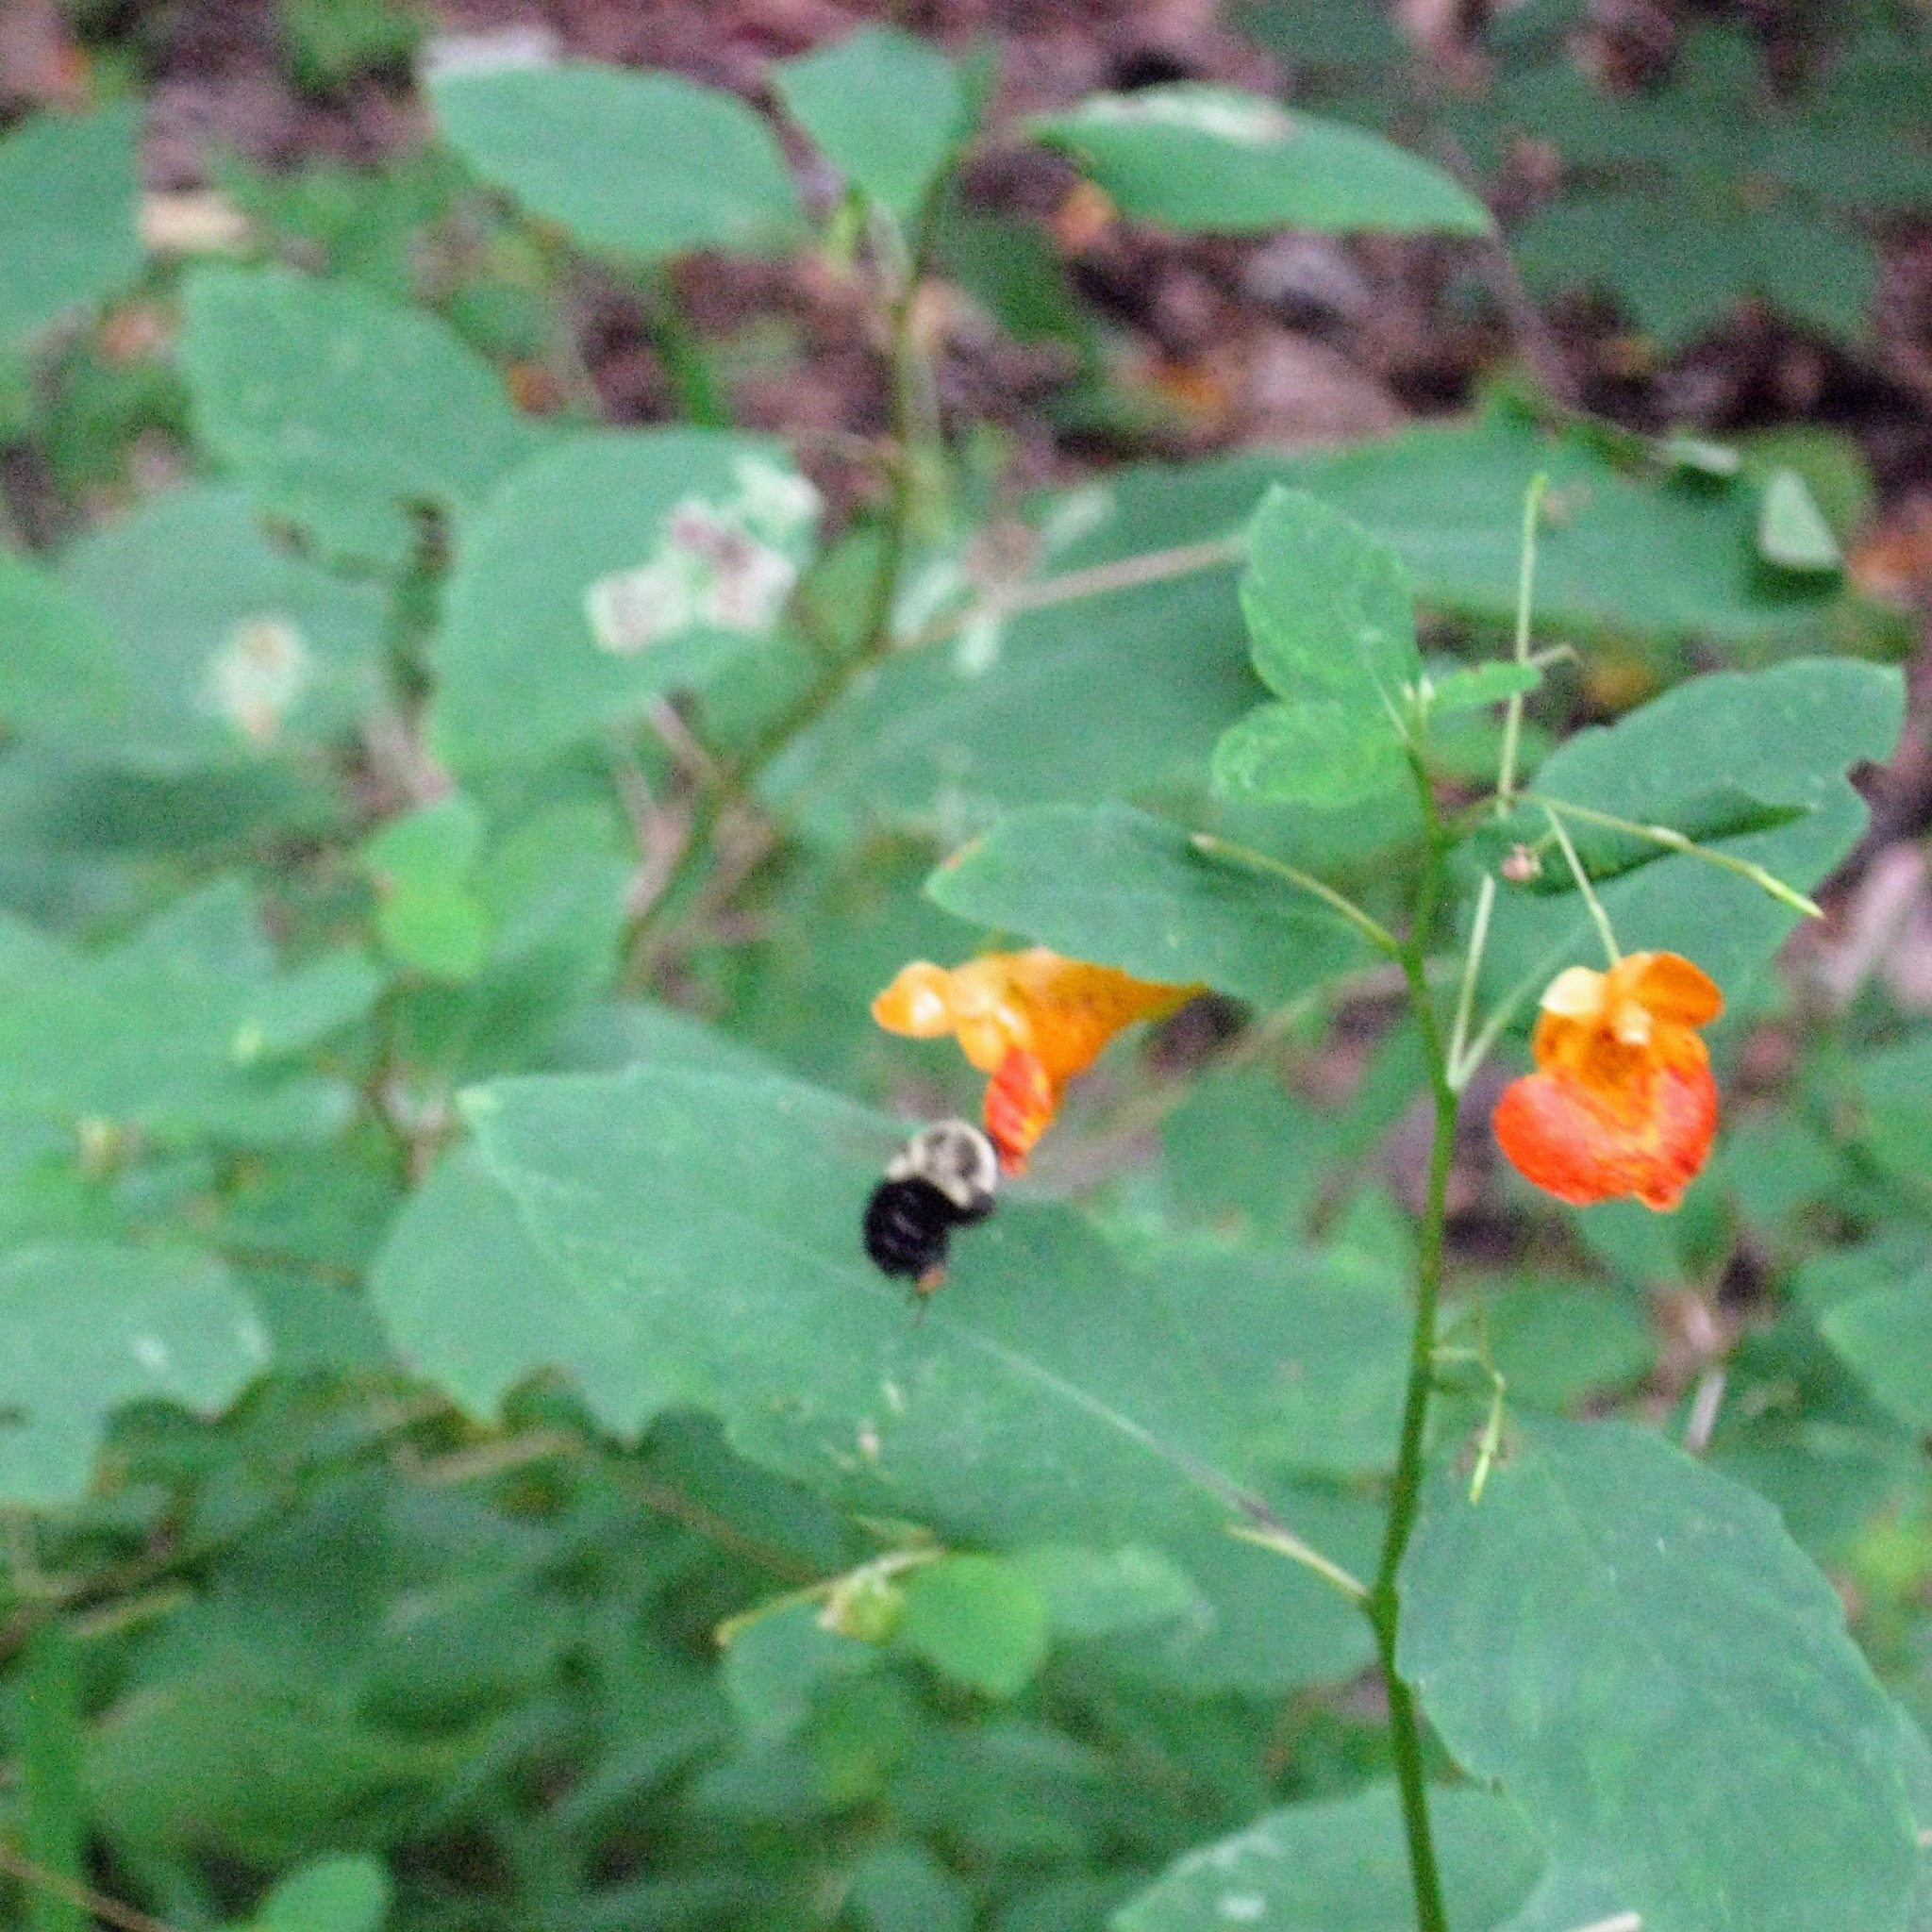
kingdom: Plantae
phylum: Tracheophyta
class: Magnoliopsida
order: Ericales
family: Balsaminaceae
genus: Impatiens
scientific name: Impatiens capensis
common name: Orange balsam
